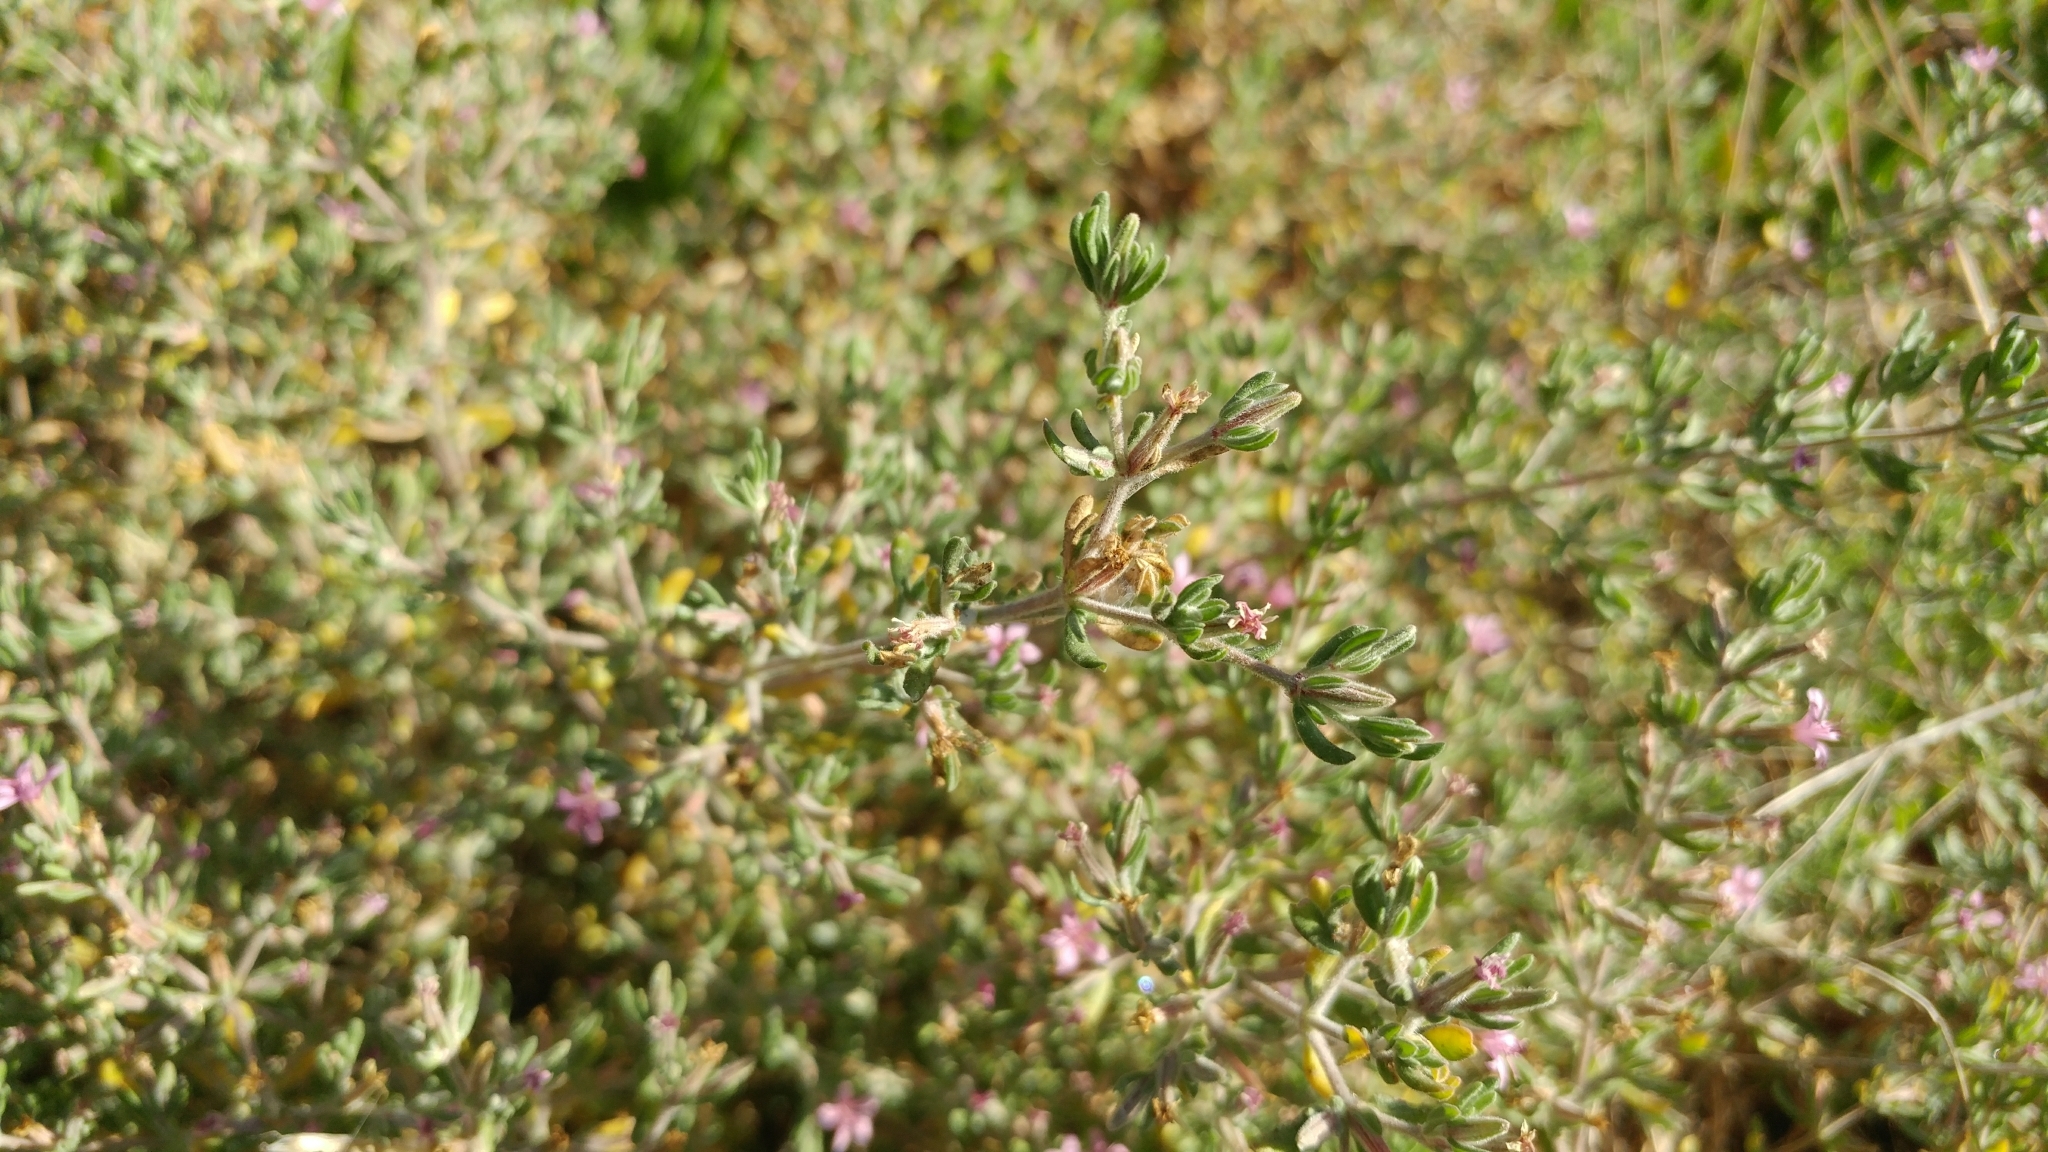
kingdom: Plantae
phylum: Tracheophyta
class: Magnoliopsida
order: Caryophyllales
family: Frankeniaceae
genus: Frankenia
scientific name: Frankenia salina
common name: Alkali seaheath
